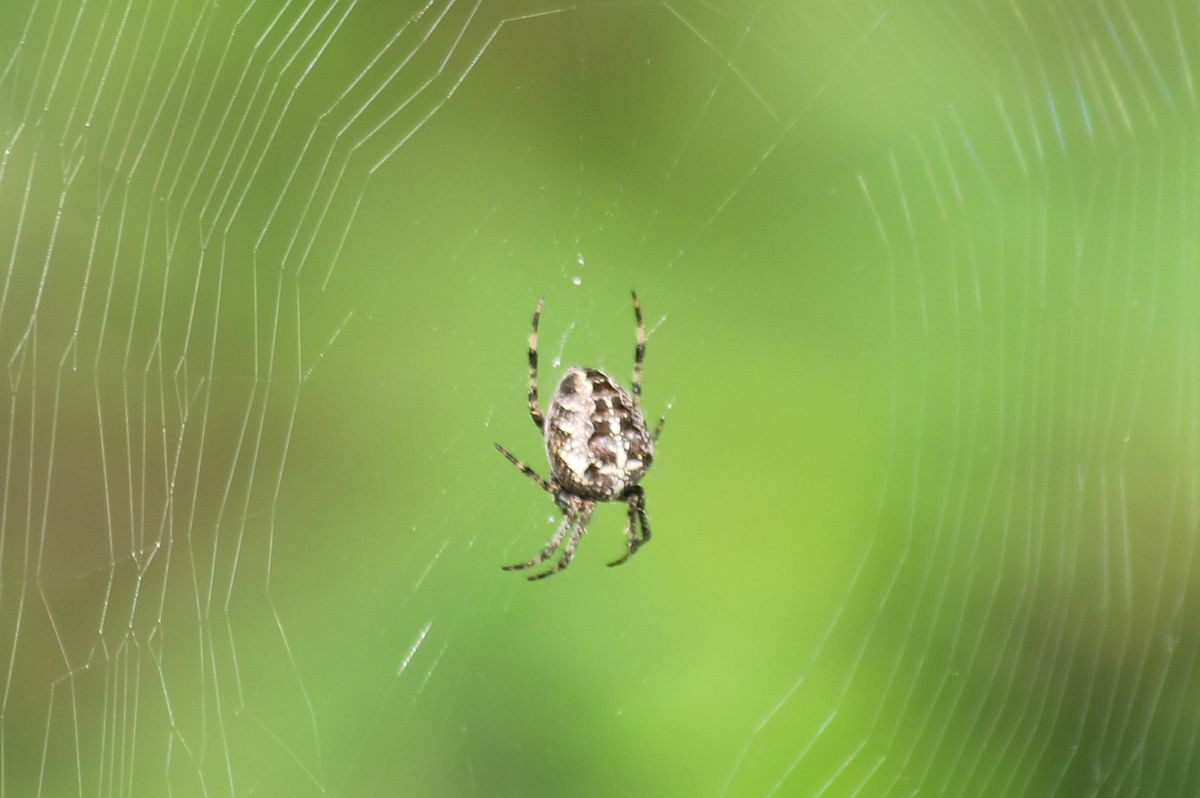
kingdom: Animalia
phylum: Arthropoda
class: Arachnida
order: Araneae
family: Araneidae
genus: Araneus
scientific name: Araneus diadematus
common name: Cross orbweaver
